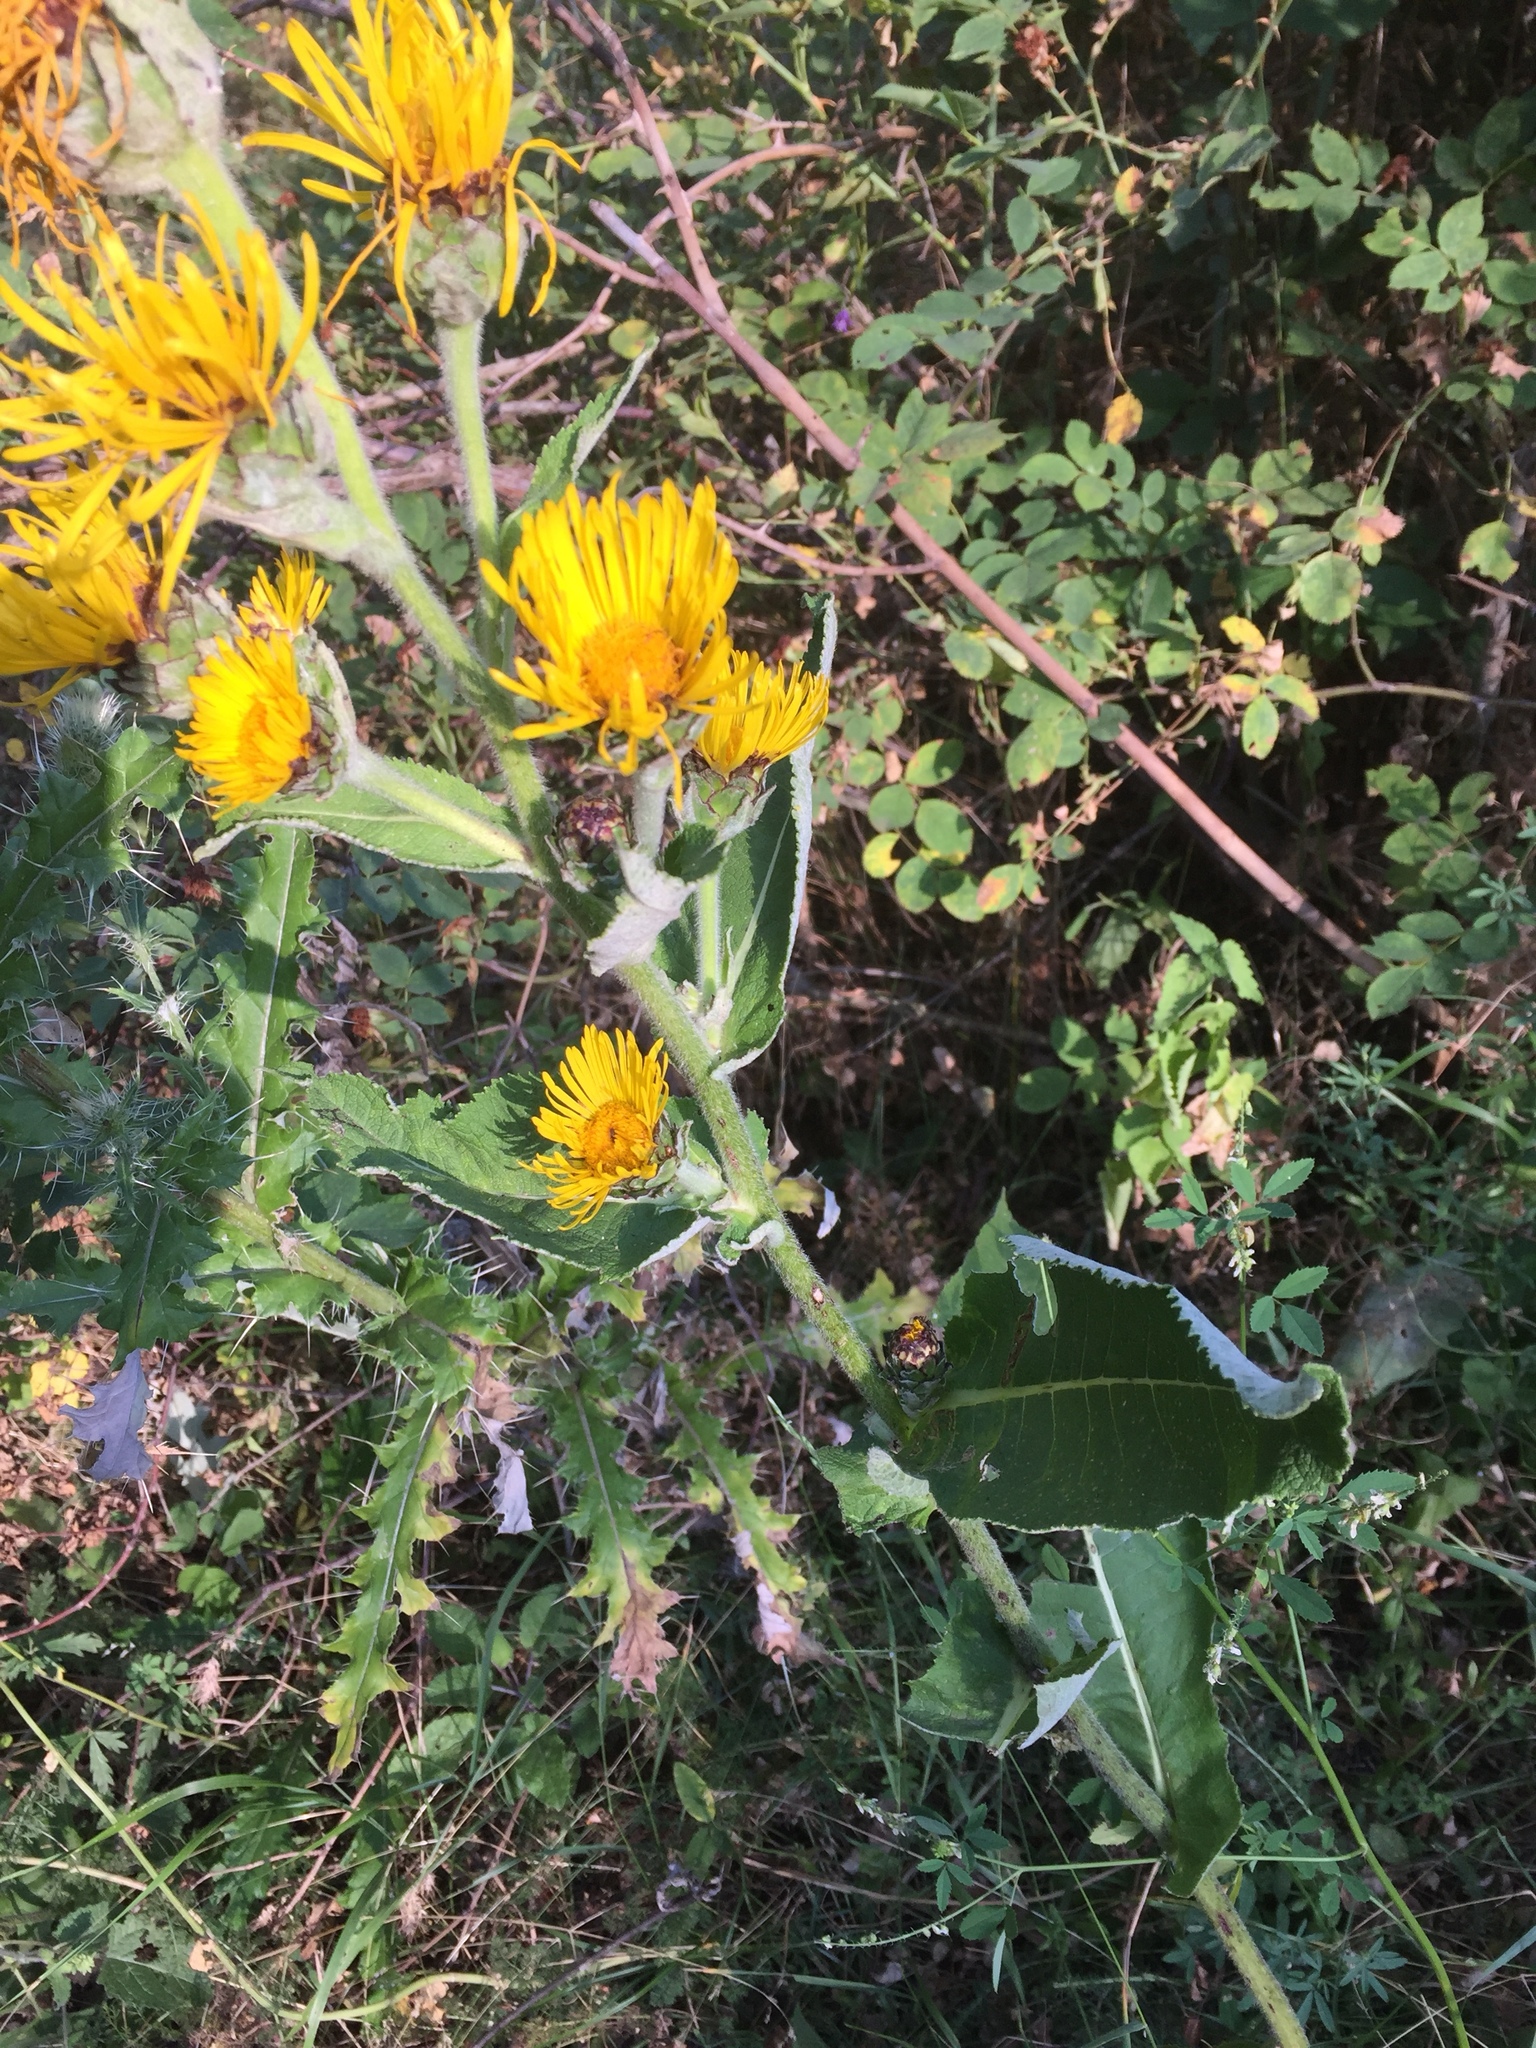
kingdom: Plantae
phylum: Tracheophyta
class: Magnoliopsida
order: Asterales
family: Asteraceae
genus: Inula
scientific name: Inula helenium
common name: Elecampane
